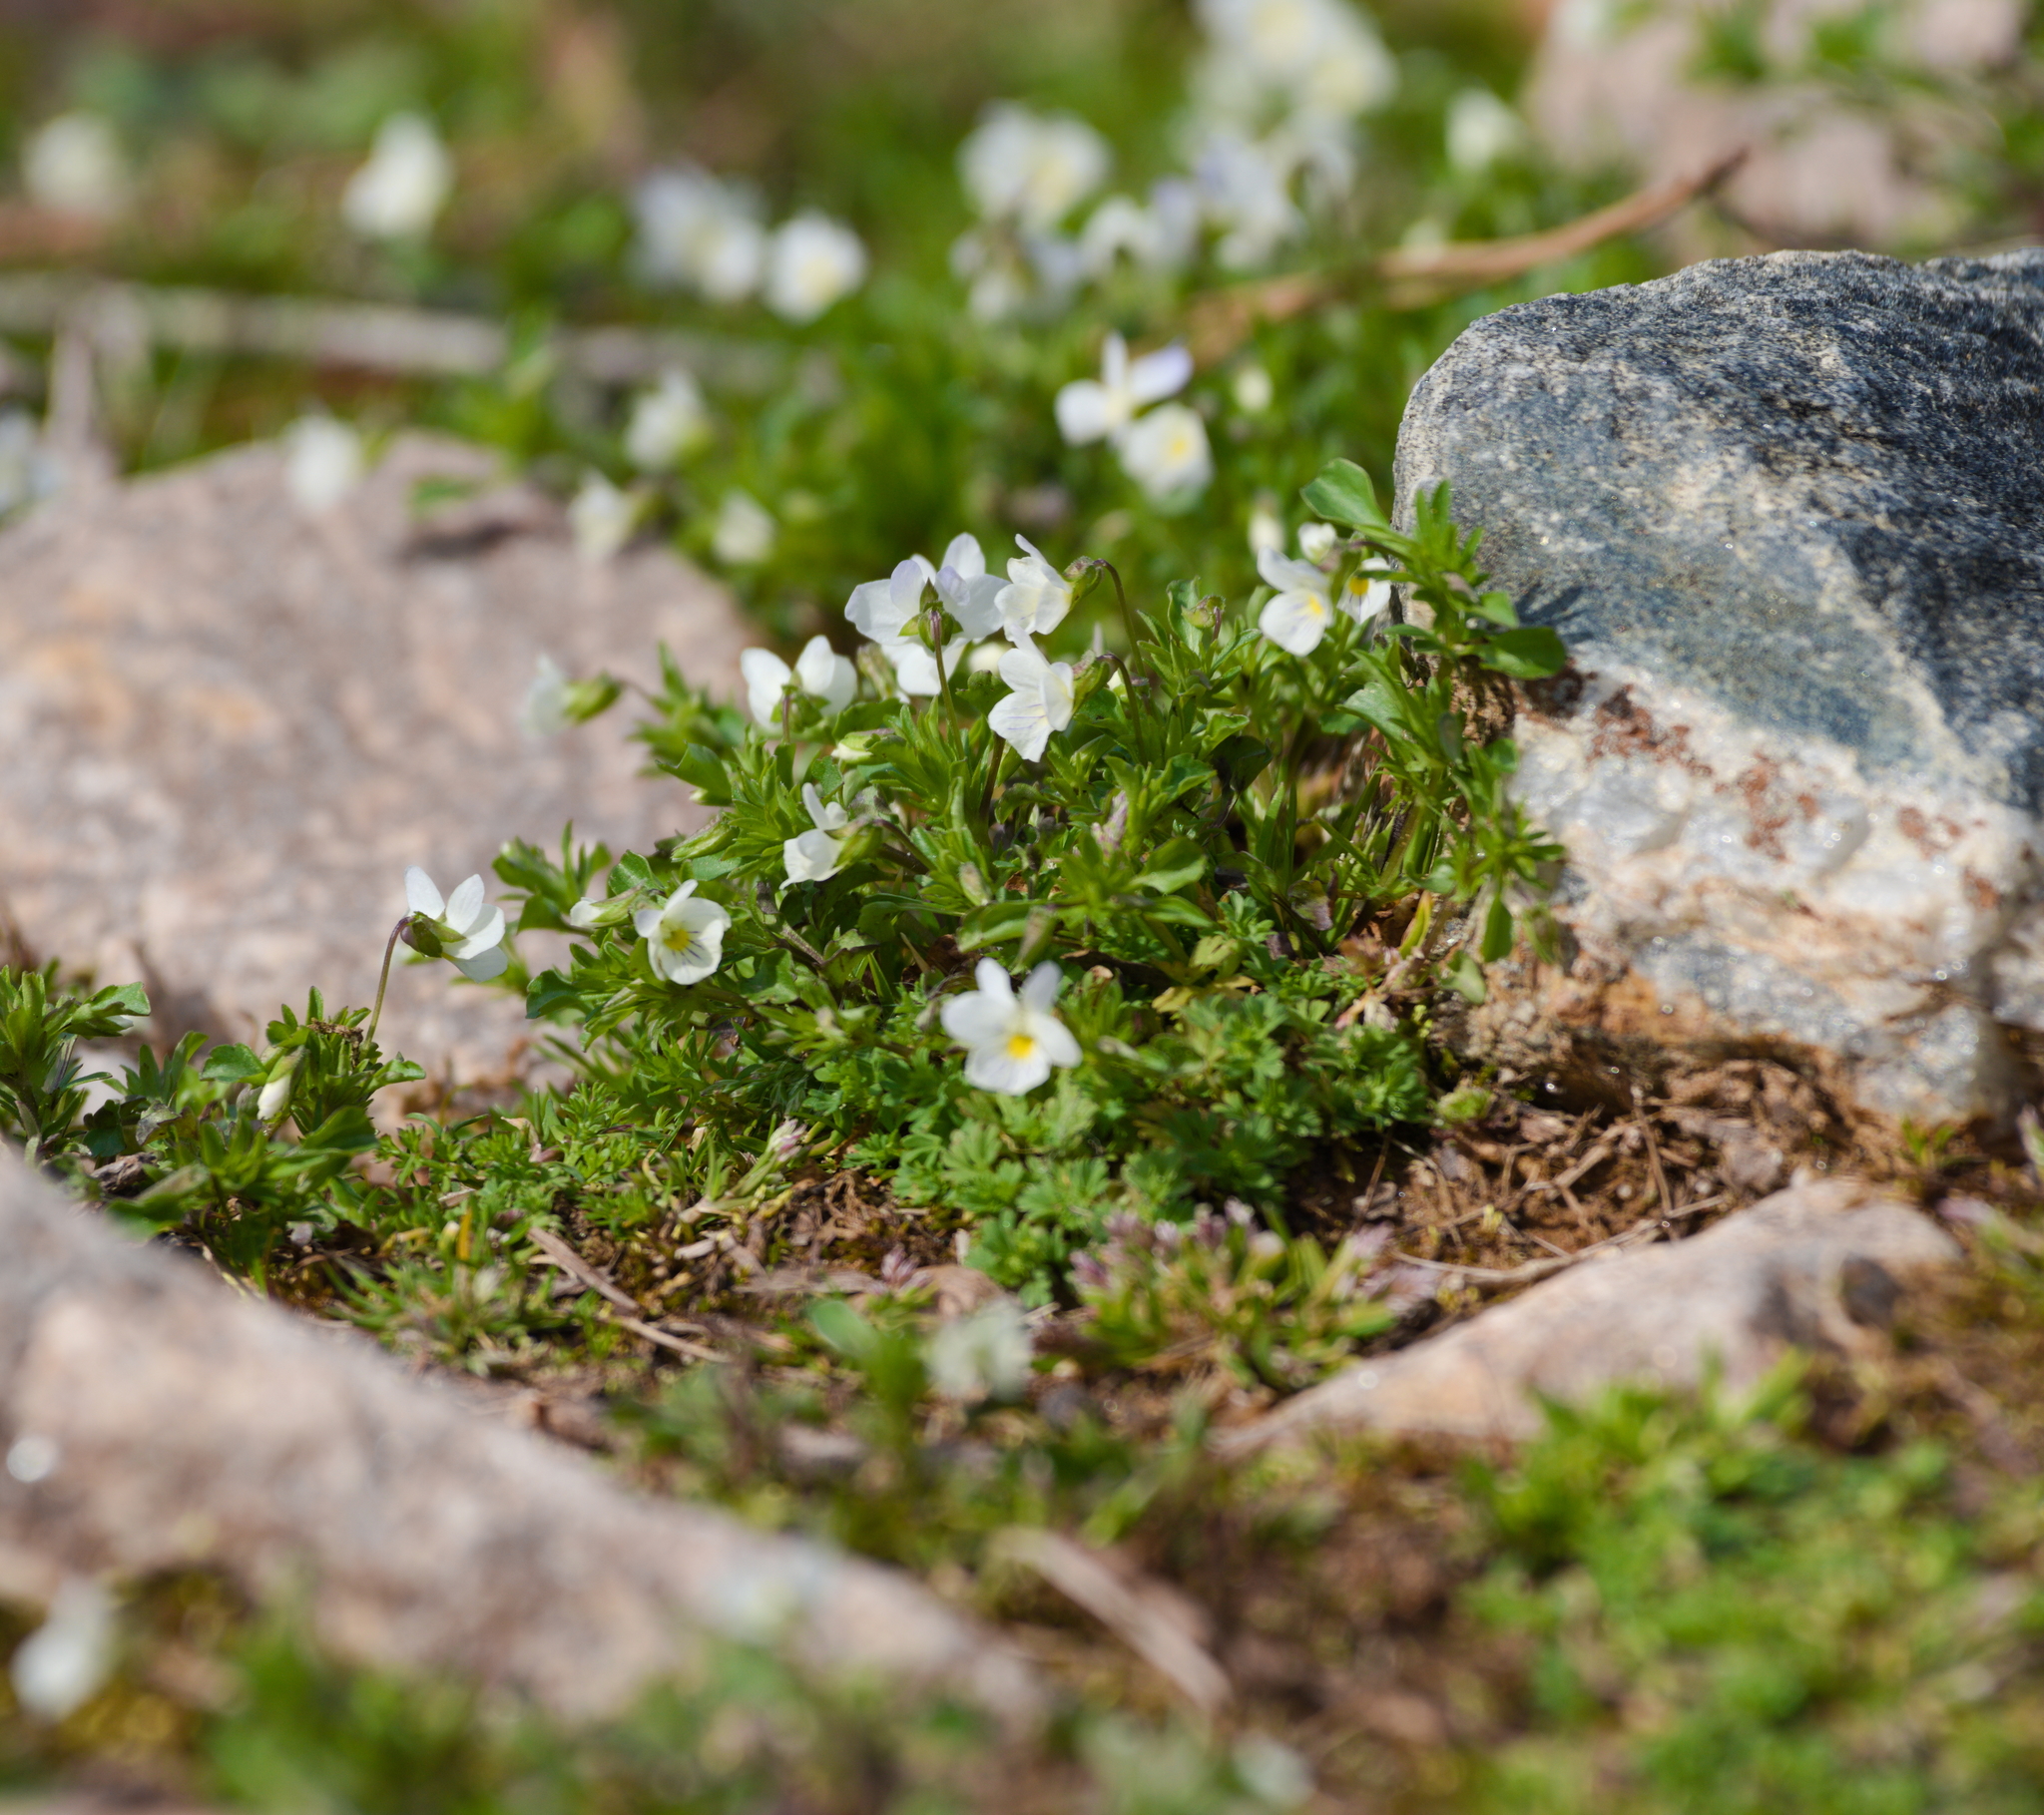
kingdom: Plantae
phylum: Tracheophyta
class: Magnoliopsida
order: Malpighiales
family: Violaceae
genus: Viola
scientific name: Viola rafinesquei
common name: American field pansy
